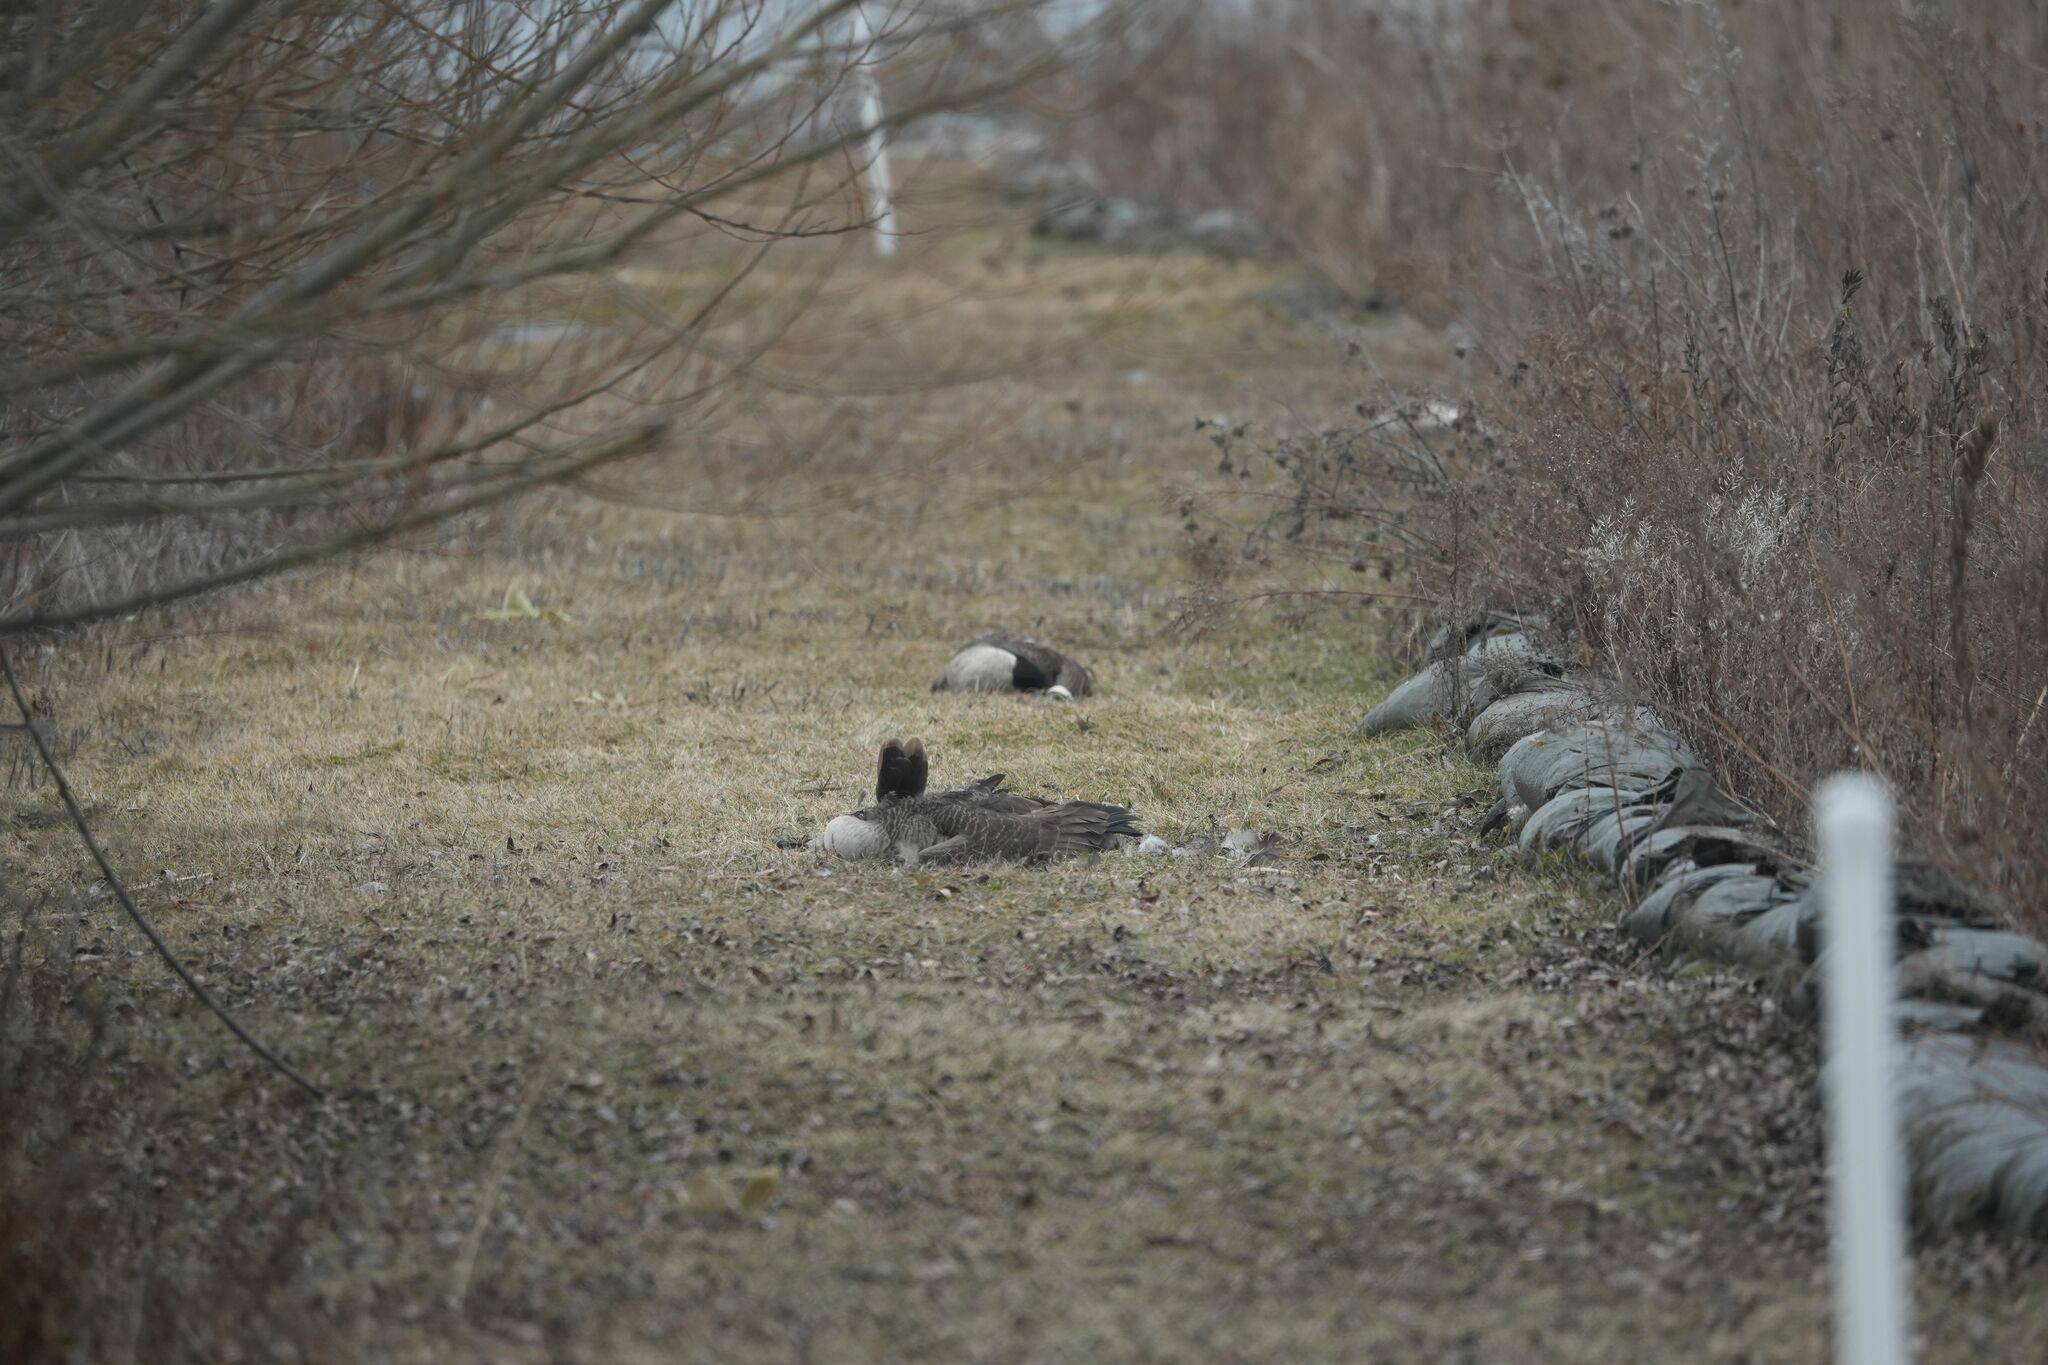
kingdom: Animalia
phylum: Chordata
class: Aves
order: Anseriformes
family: Anatidae
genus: Branta
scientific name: Branta canadensis
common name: Canada goose
